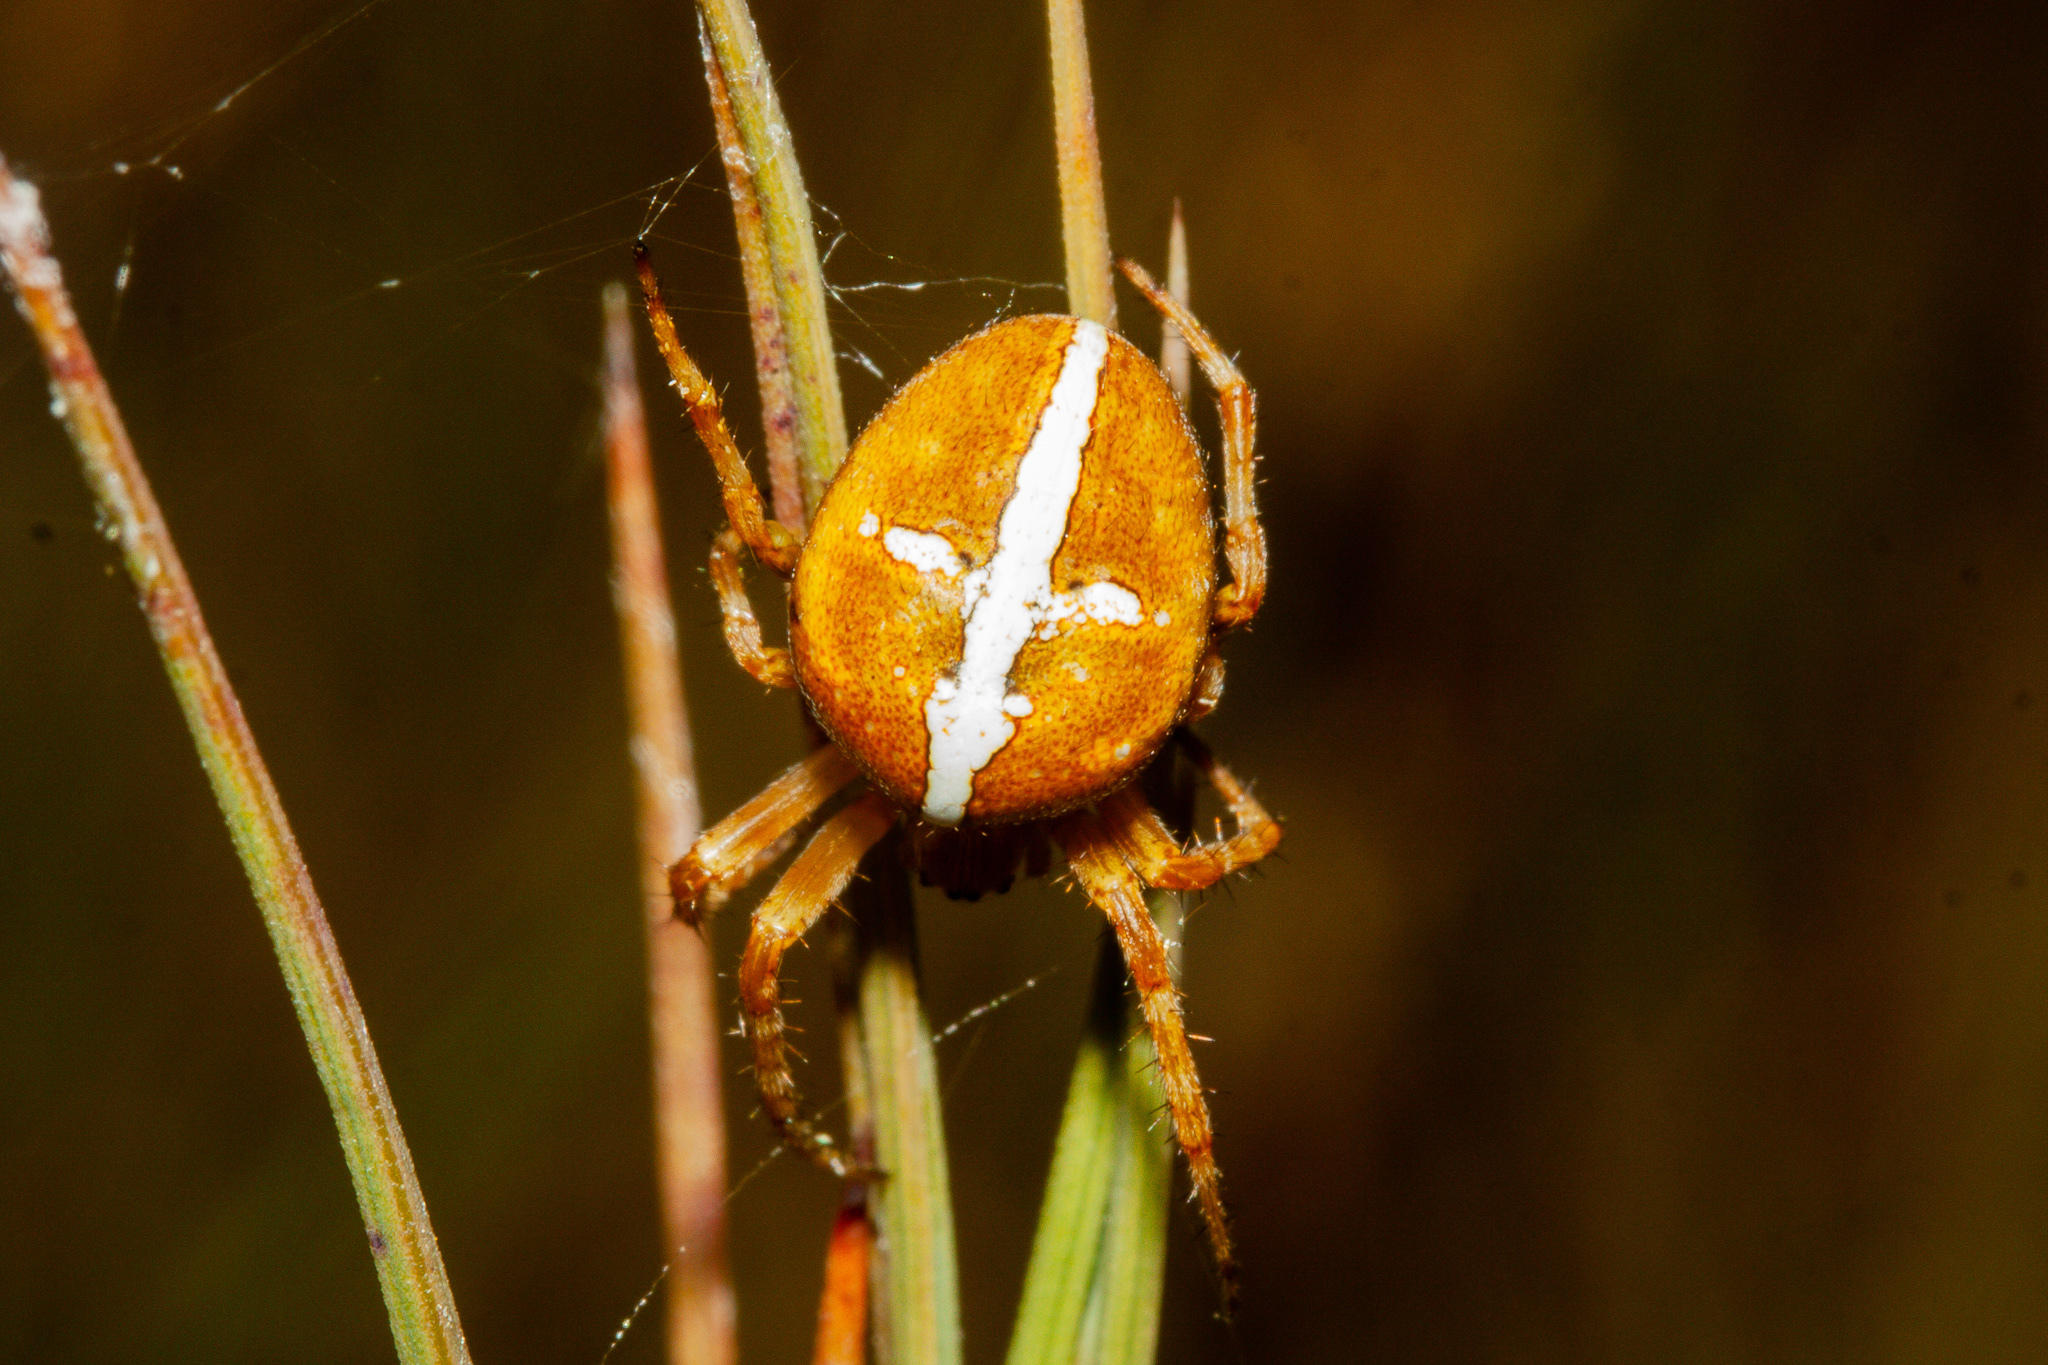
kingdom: Animalia
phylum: Arthropoda
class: Arachnida
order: Araneae
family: Araneidae
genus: Colaranea
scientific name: Colaranea verutum
